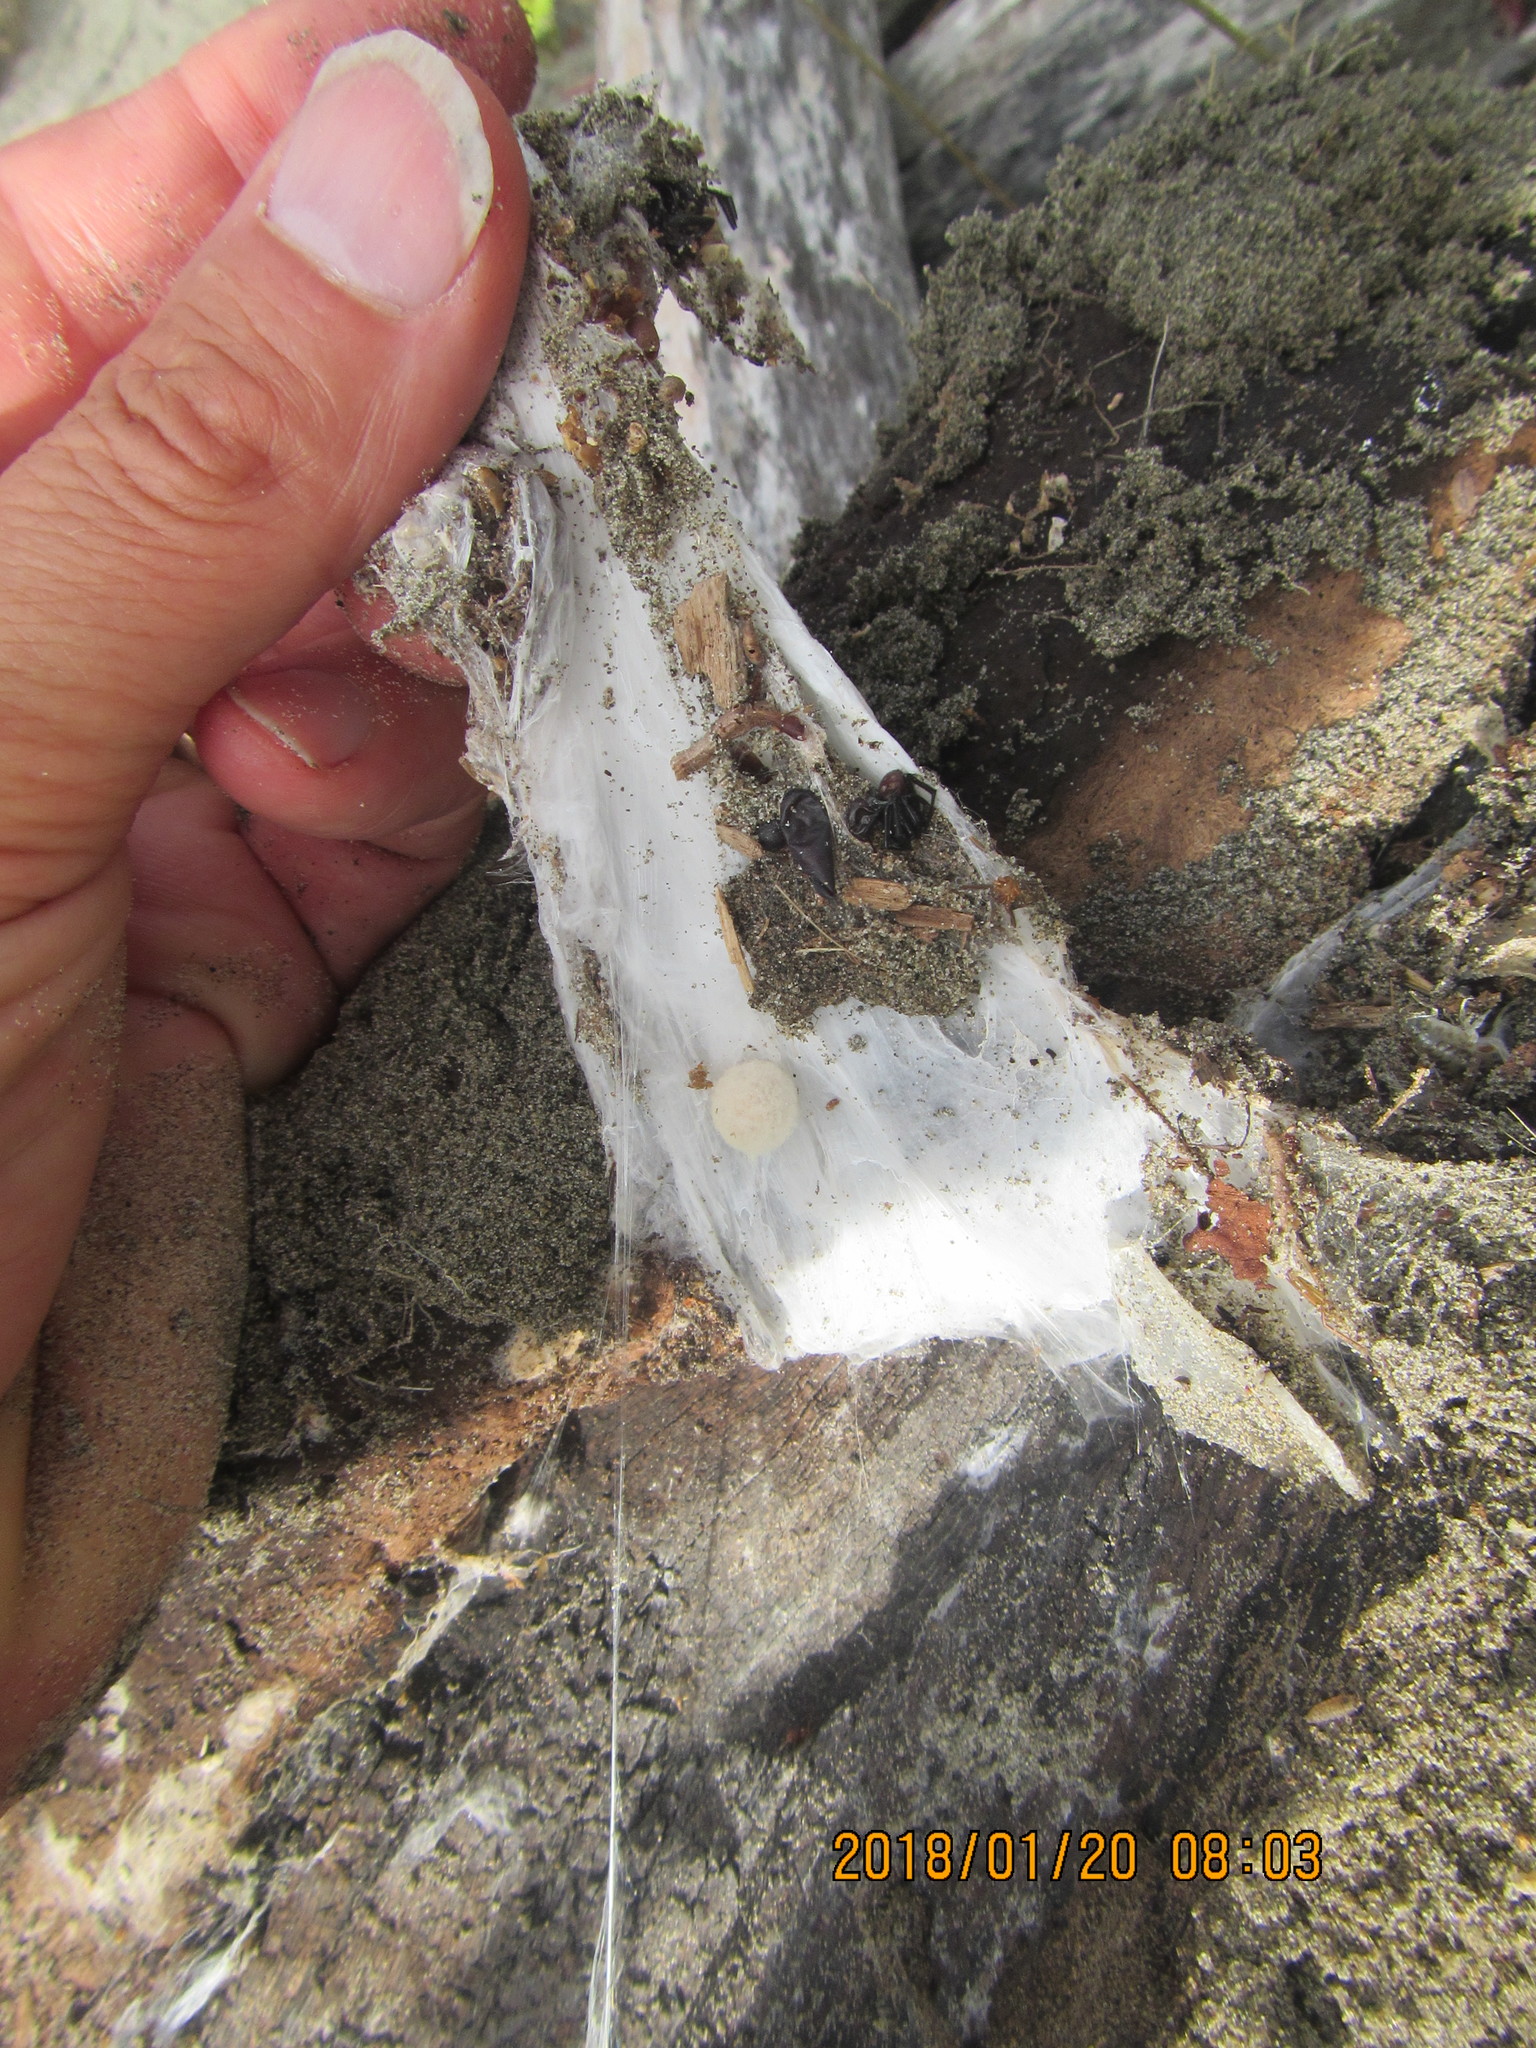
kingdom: Animalia
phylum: Arthropoda
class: Arachnida
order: Araneae
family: Theridiidae
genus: Steatoda
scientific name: Steatoda capensis
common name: Cobweb weaver
